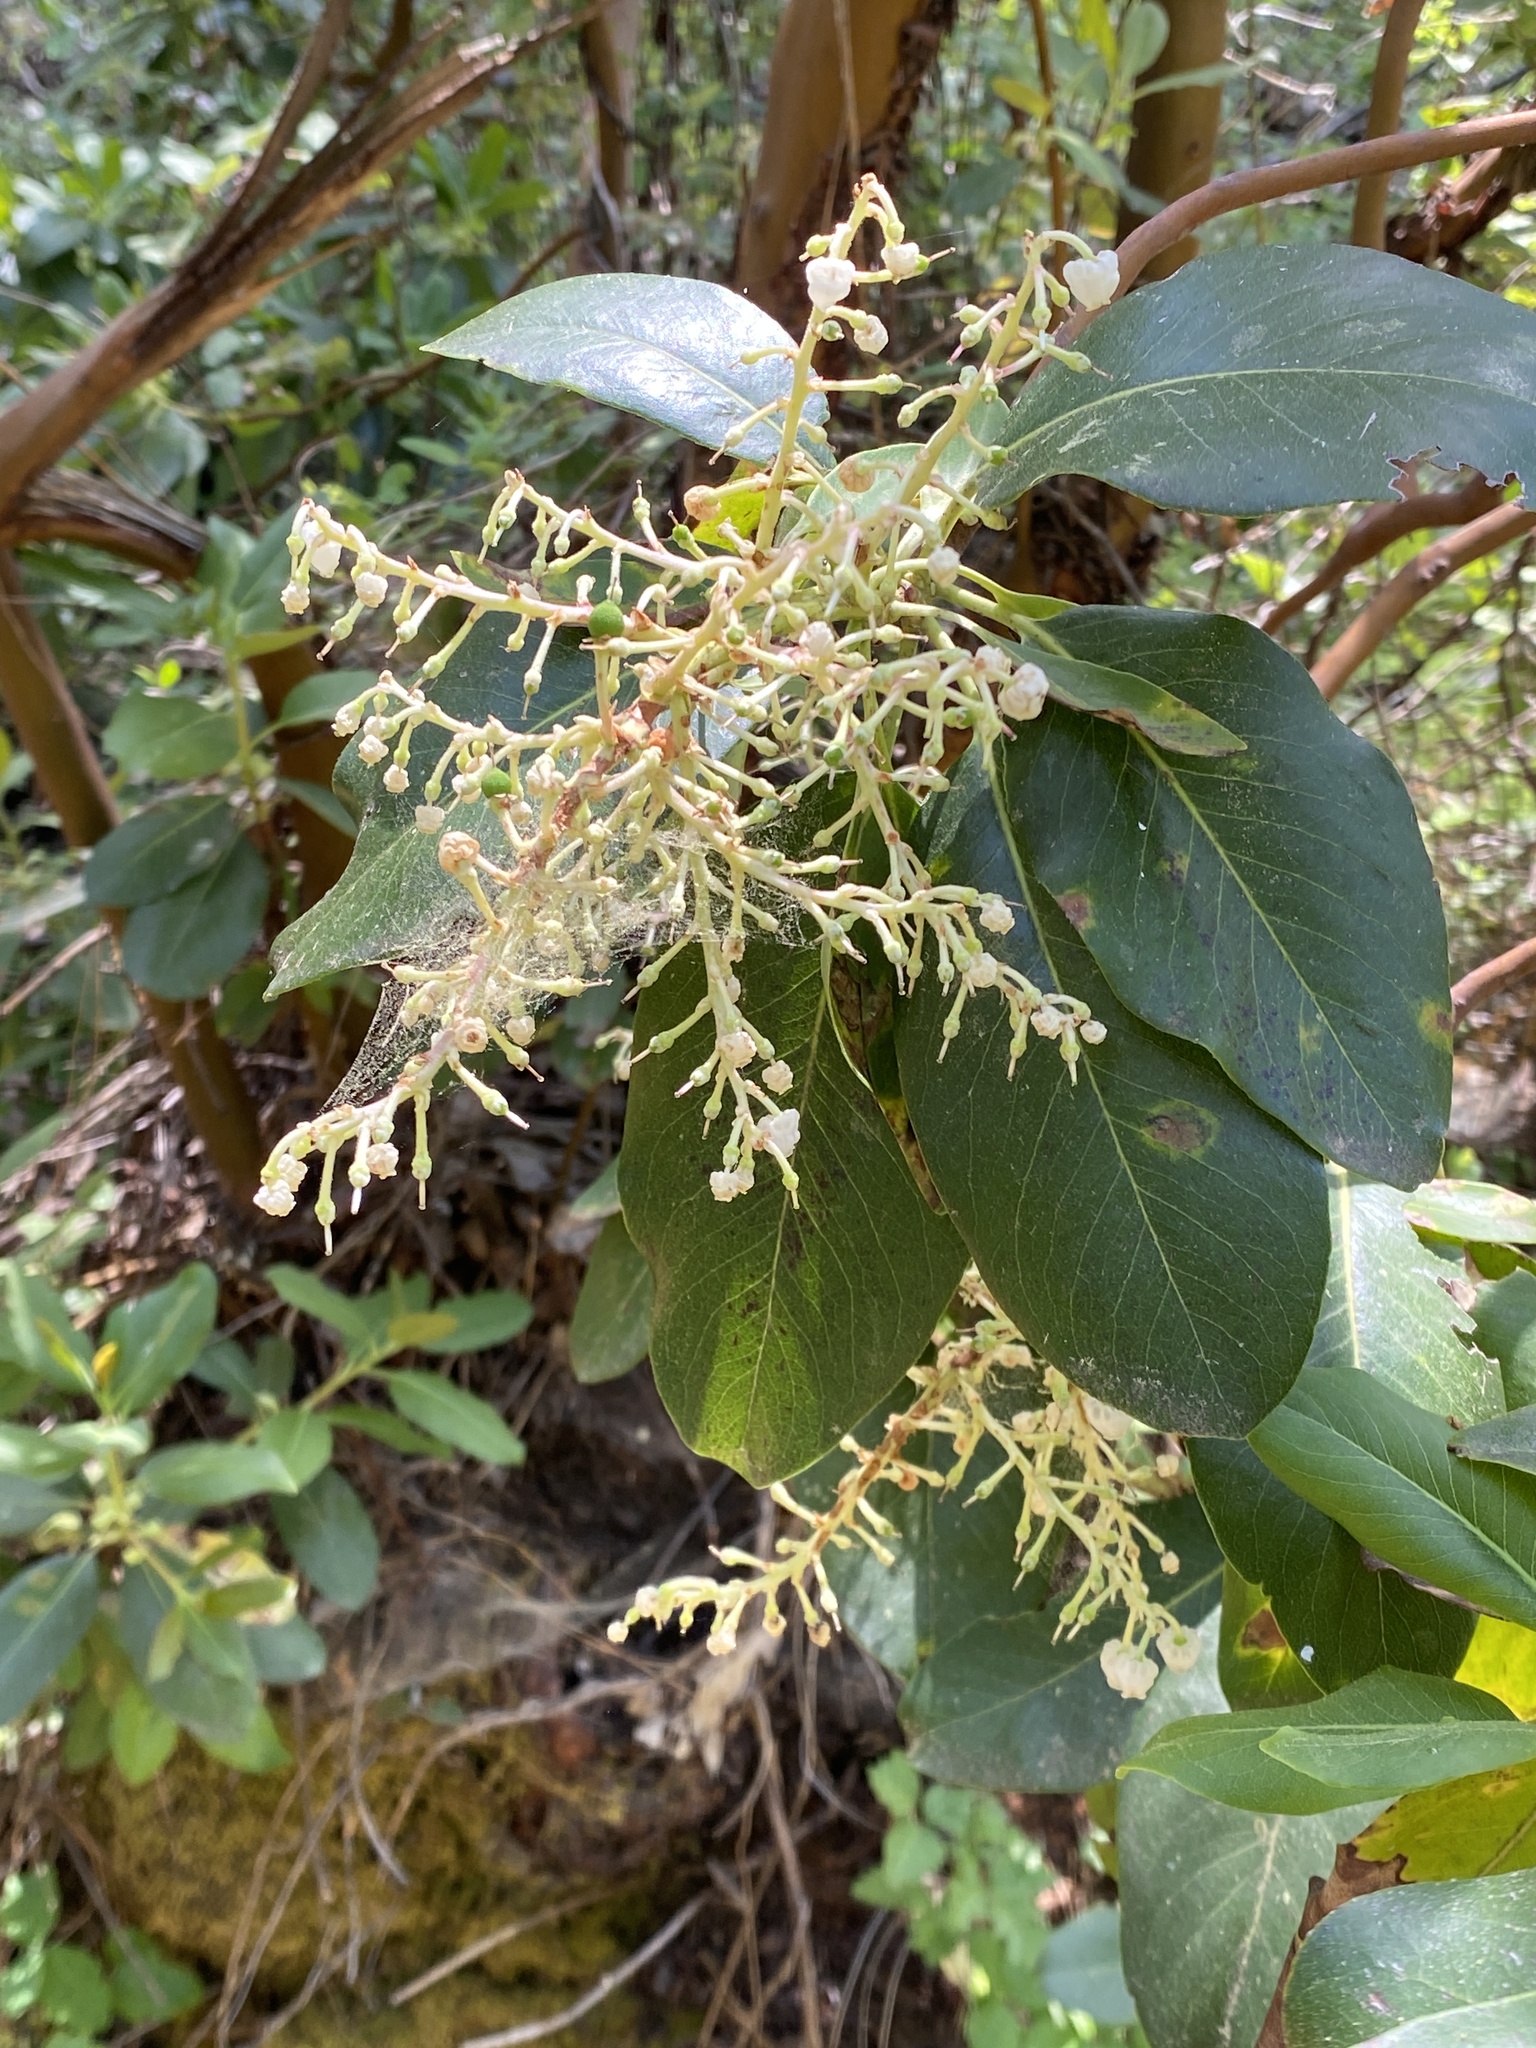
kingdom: Plantae
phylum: Tracheophyta
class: Magnoliopsida
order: Ericales
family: Ericaceae
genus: Arbutus
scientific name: Arbutus menziesii
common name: Pacific madrone
